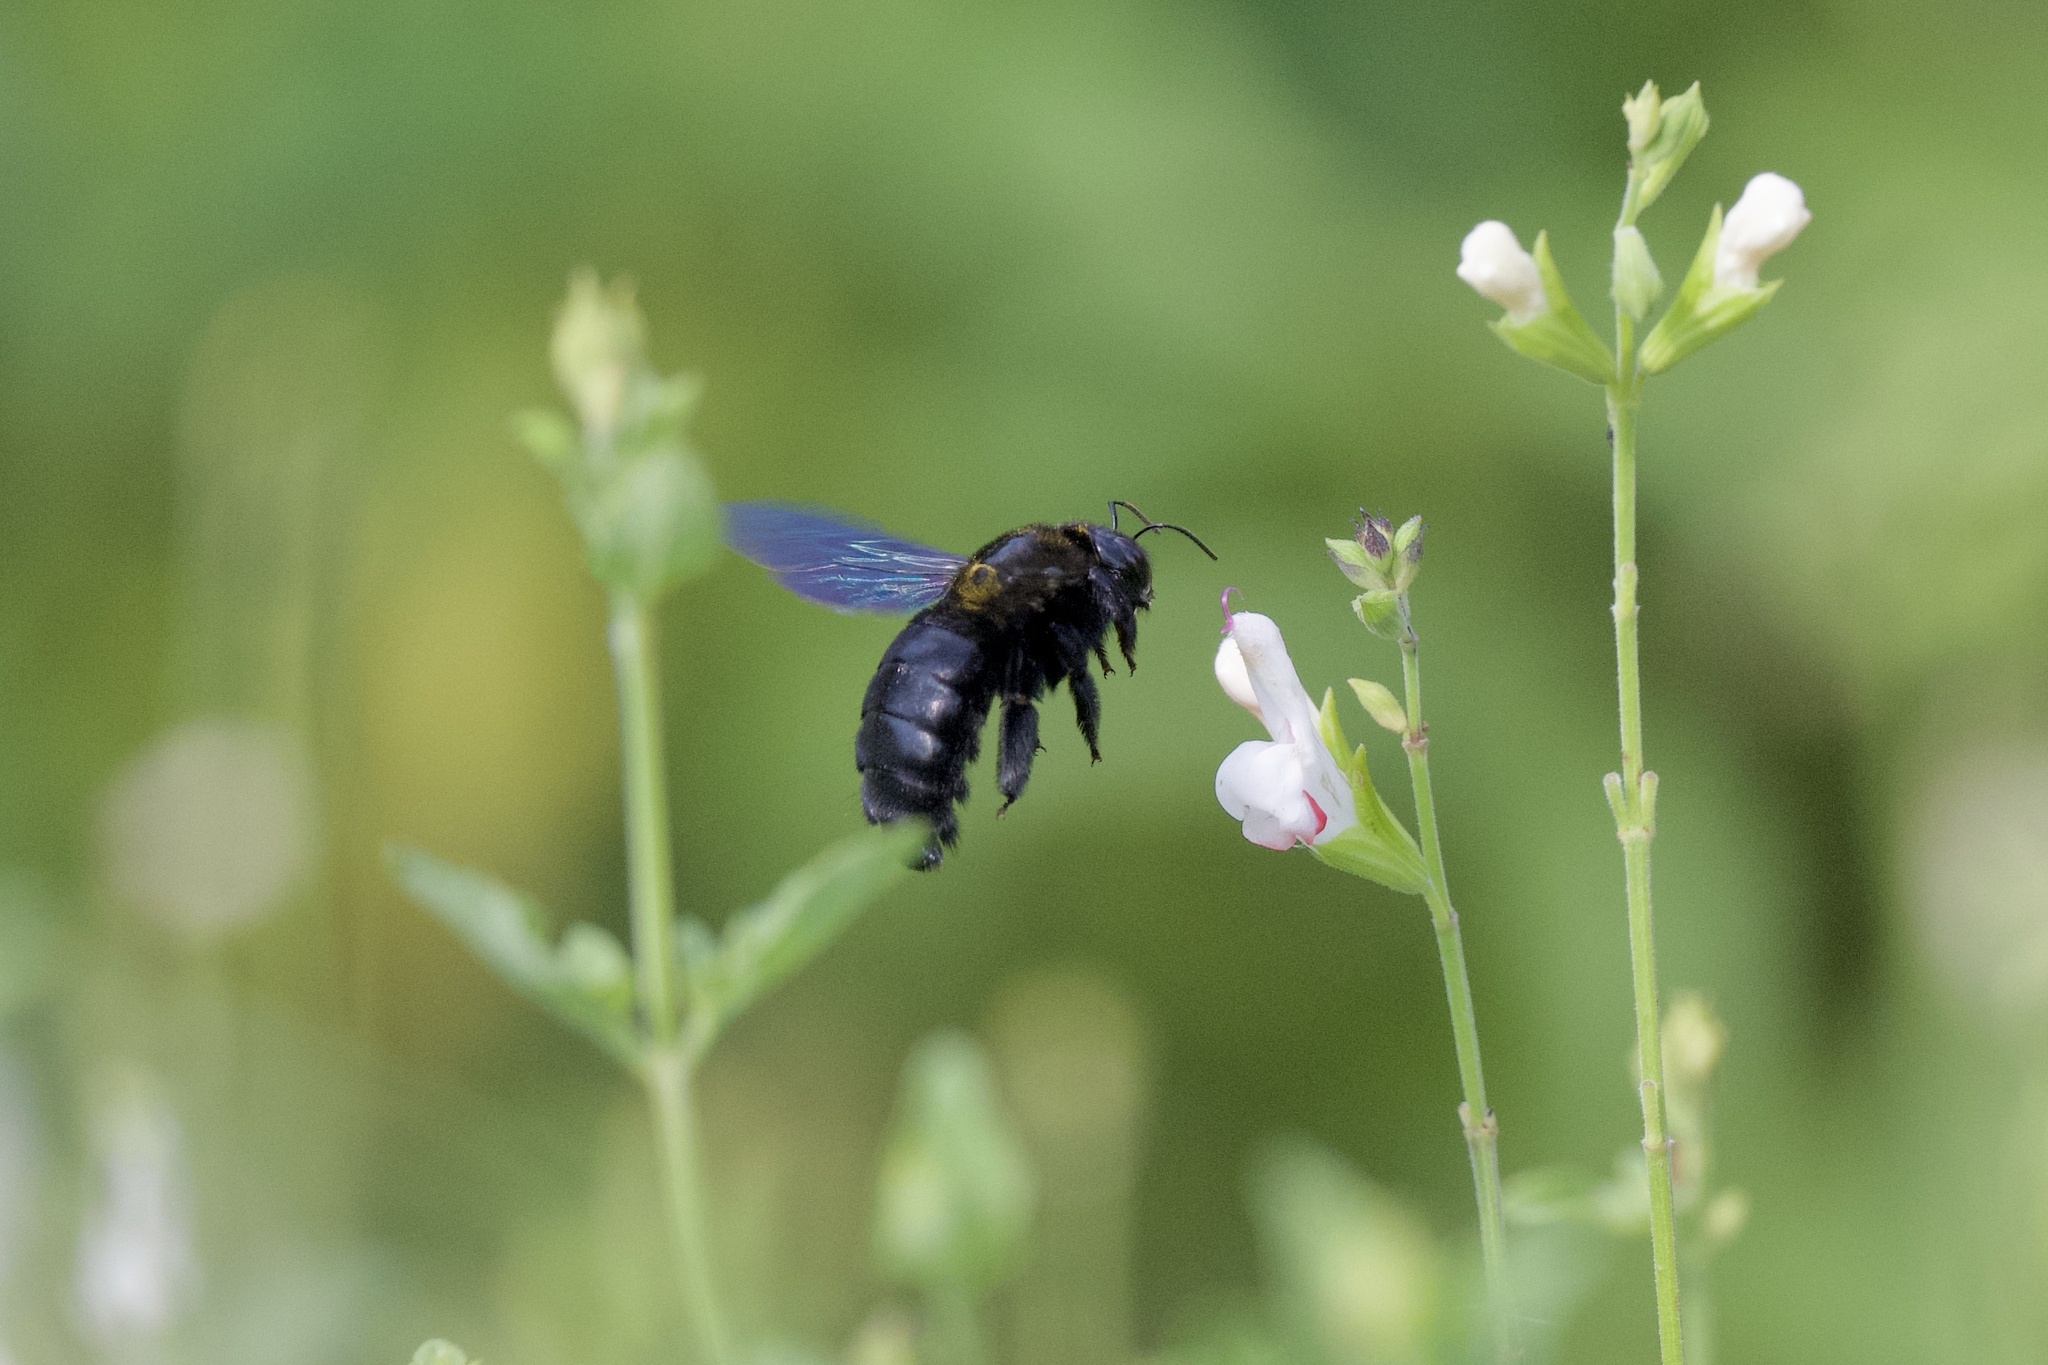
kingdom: Animalia
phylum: Arthropoda
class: Insecta
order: Hymenoptera
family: Apidae
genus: Xylocopa
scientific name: Xylocopa sonorina
